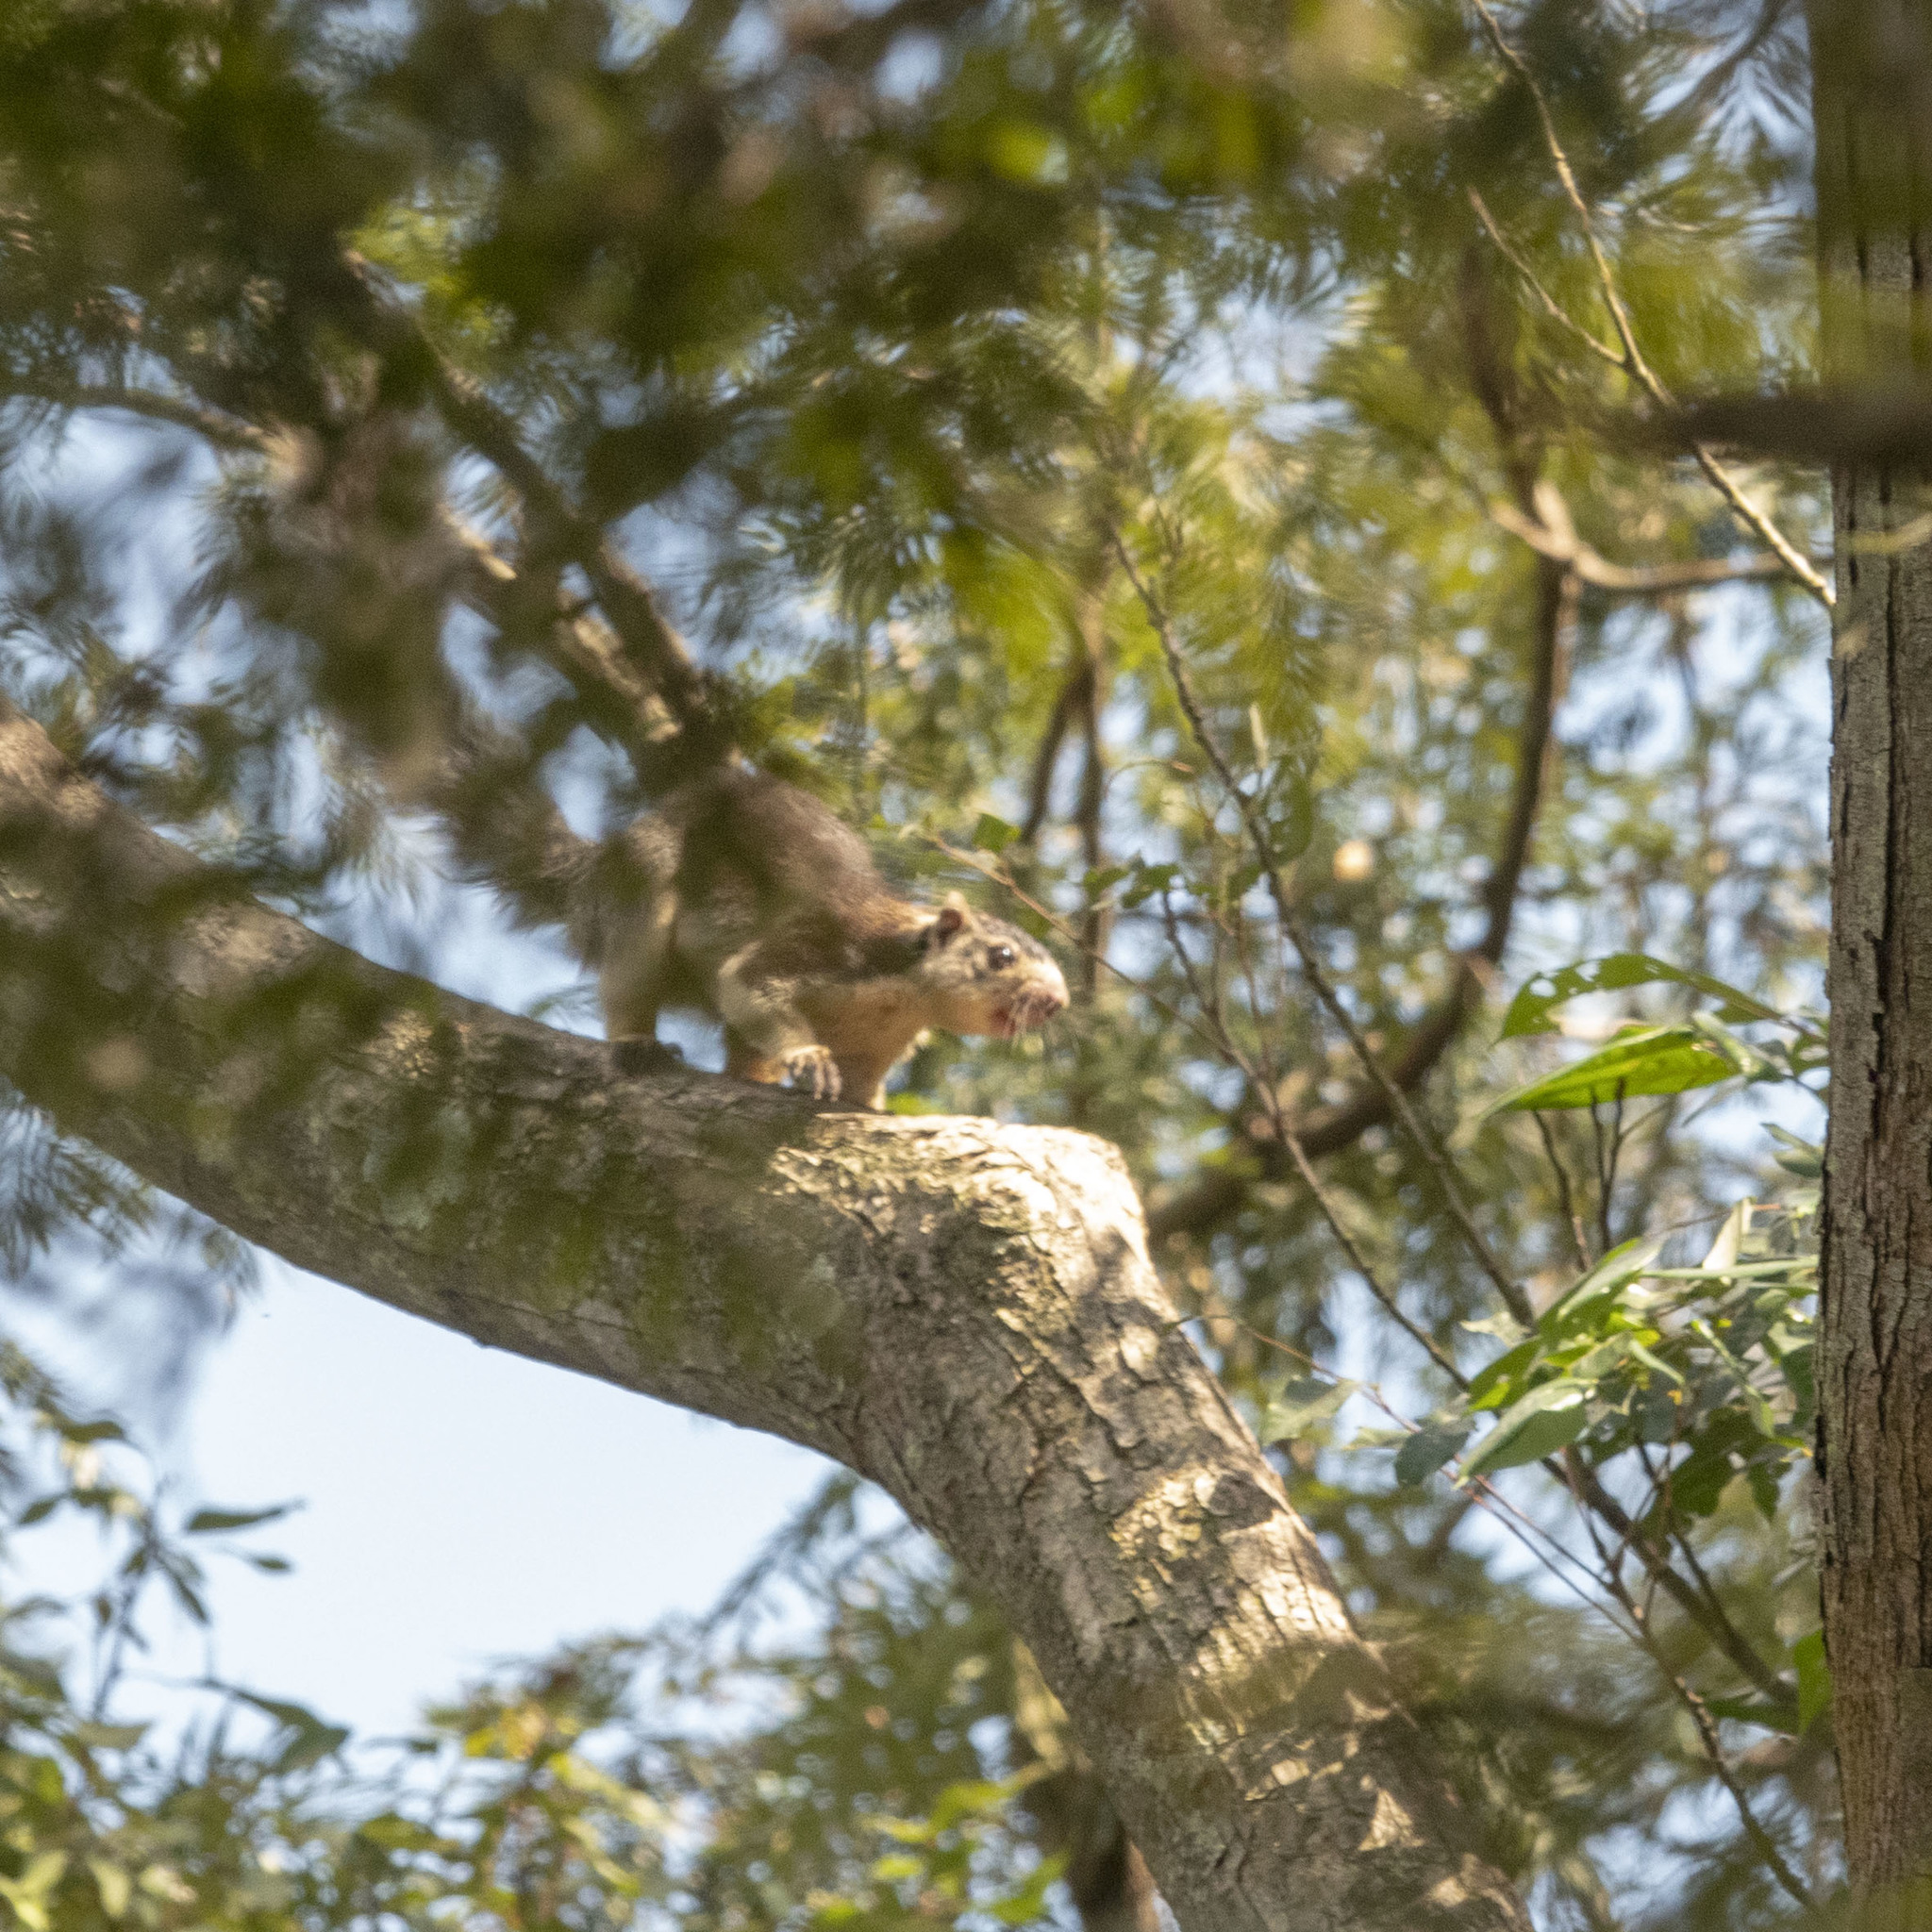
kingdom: Animalia
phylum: Chordata
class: Mammalia
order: Rodentia
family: Sciuridae
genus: Ratufa
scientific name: Ratufa macroura
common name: Sri lankan giant squirrel
